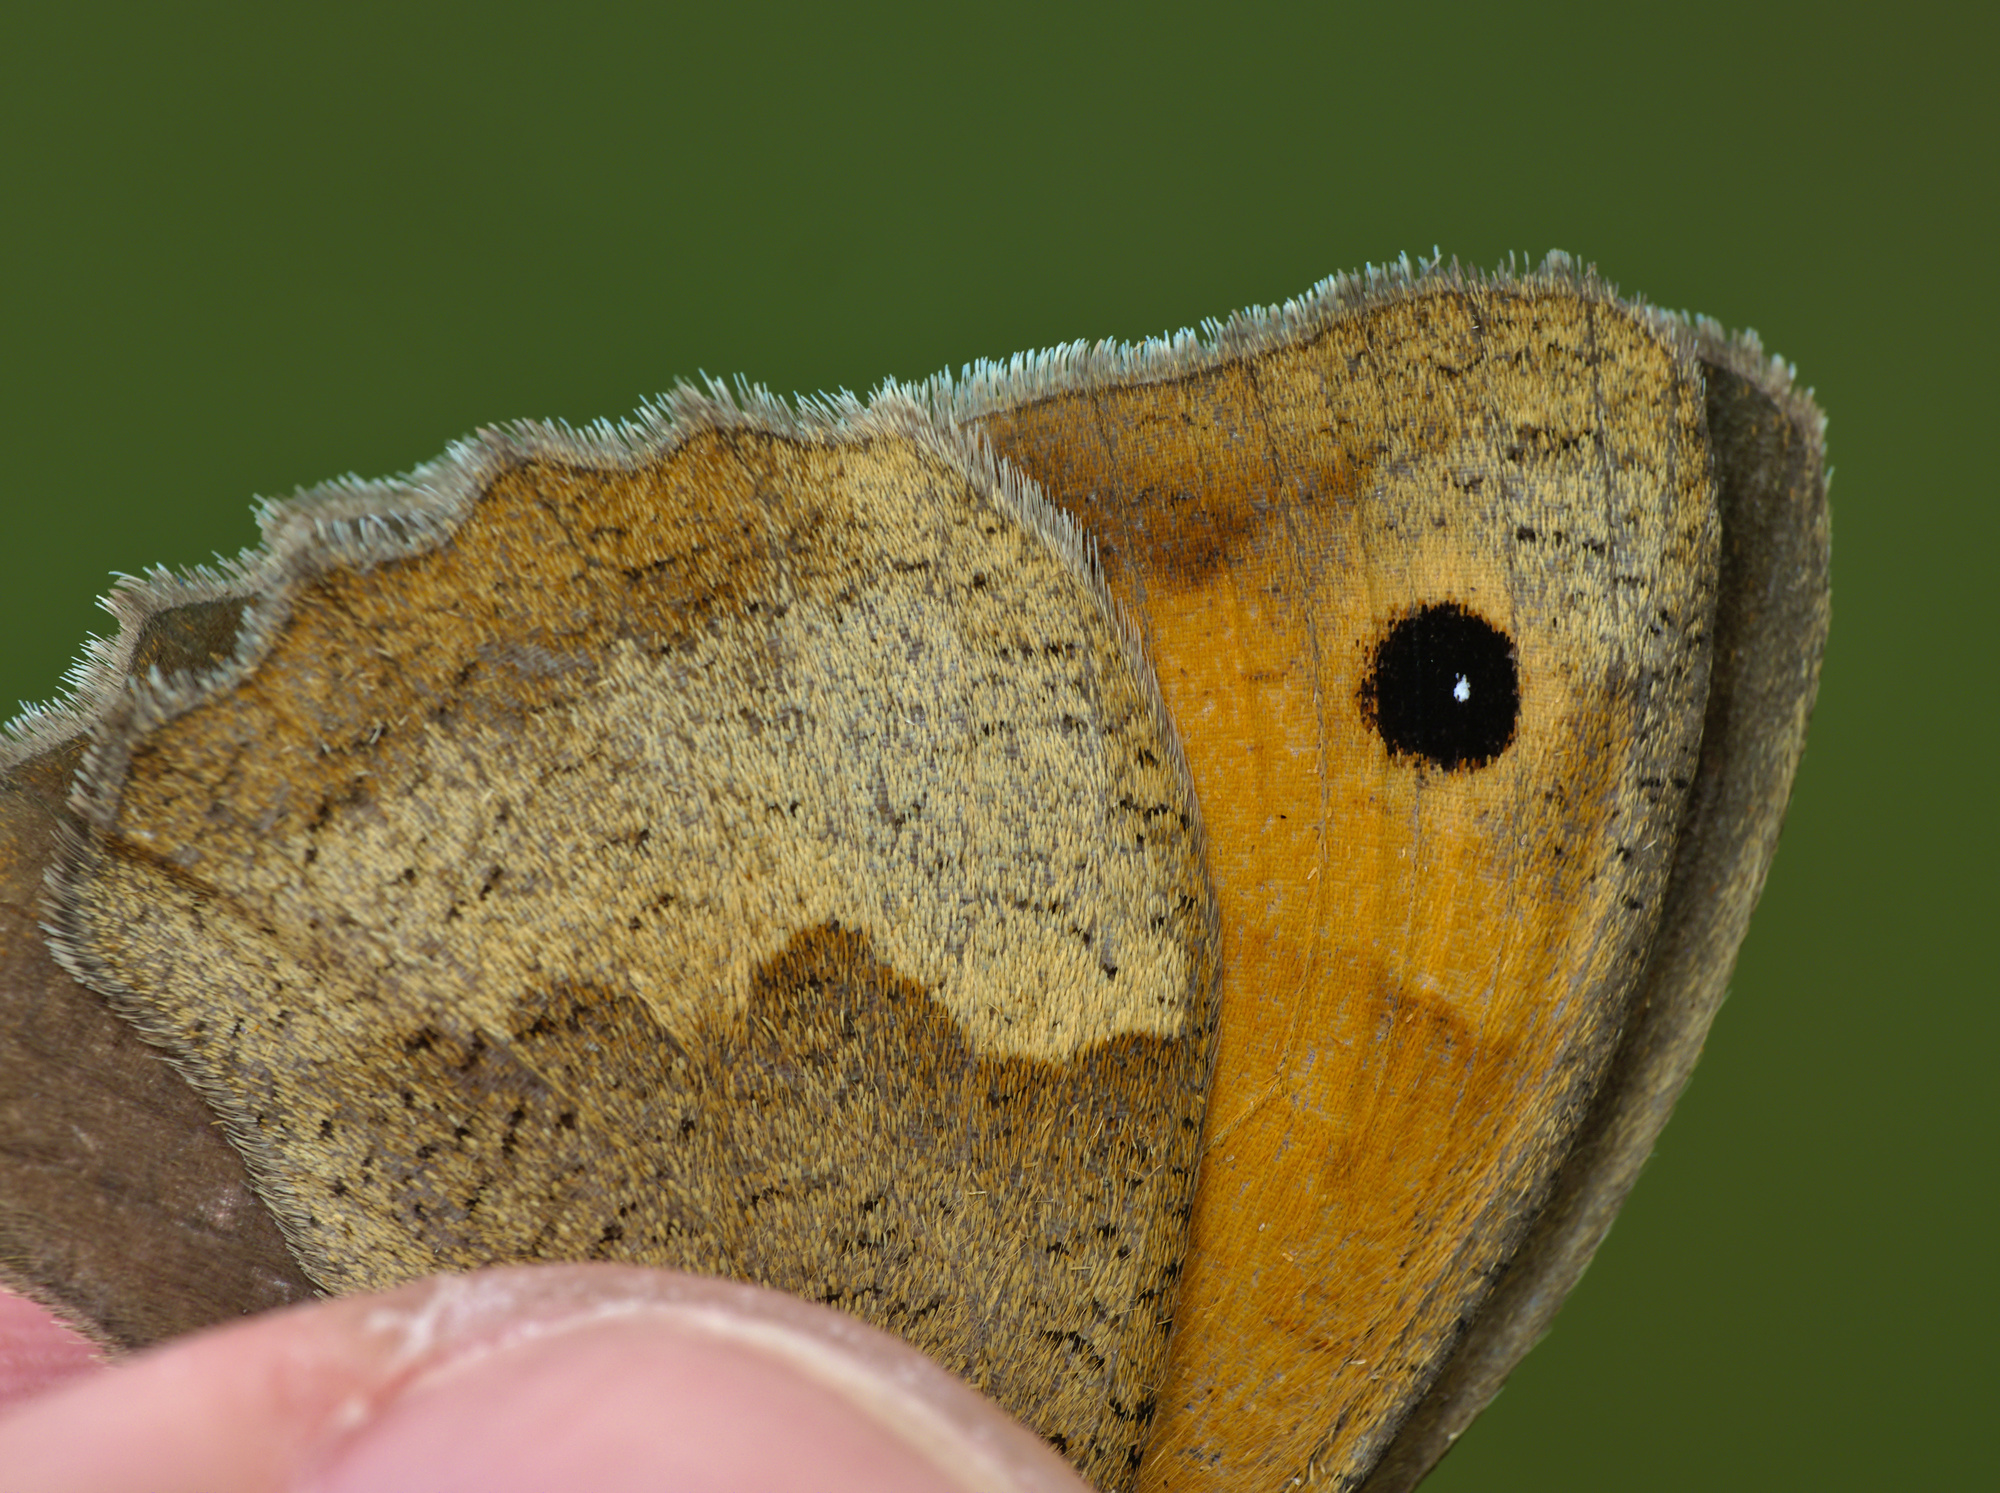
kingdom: Animalia
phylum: Arthropoda
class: Insecta
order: Lepidoptera
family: Nymphalidae
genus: Maniola
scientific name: Maniola jurtina
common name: Meadow brown
